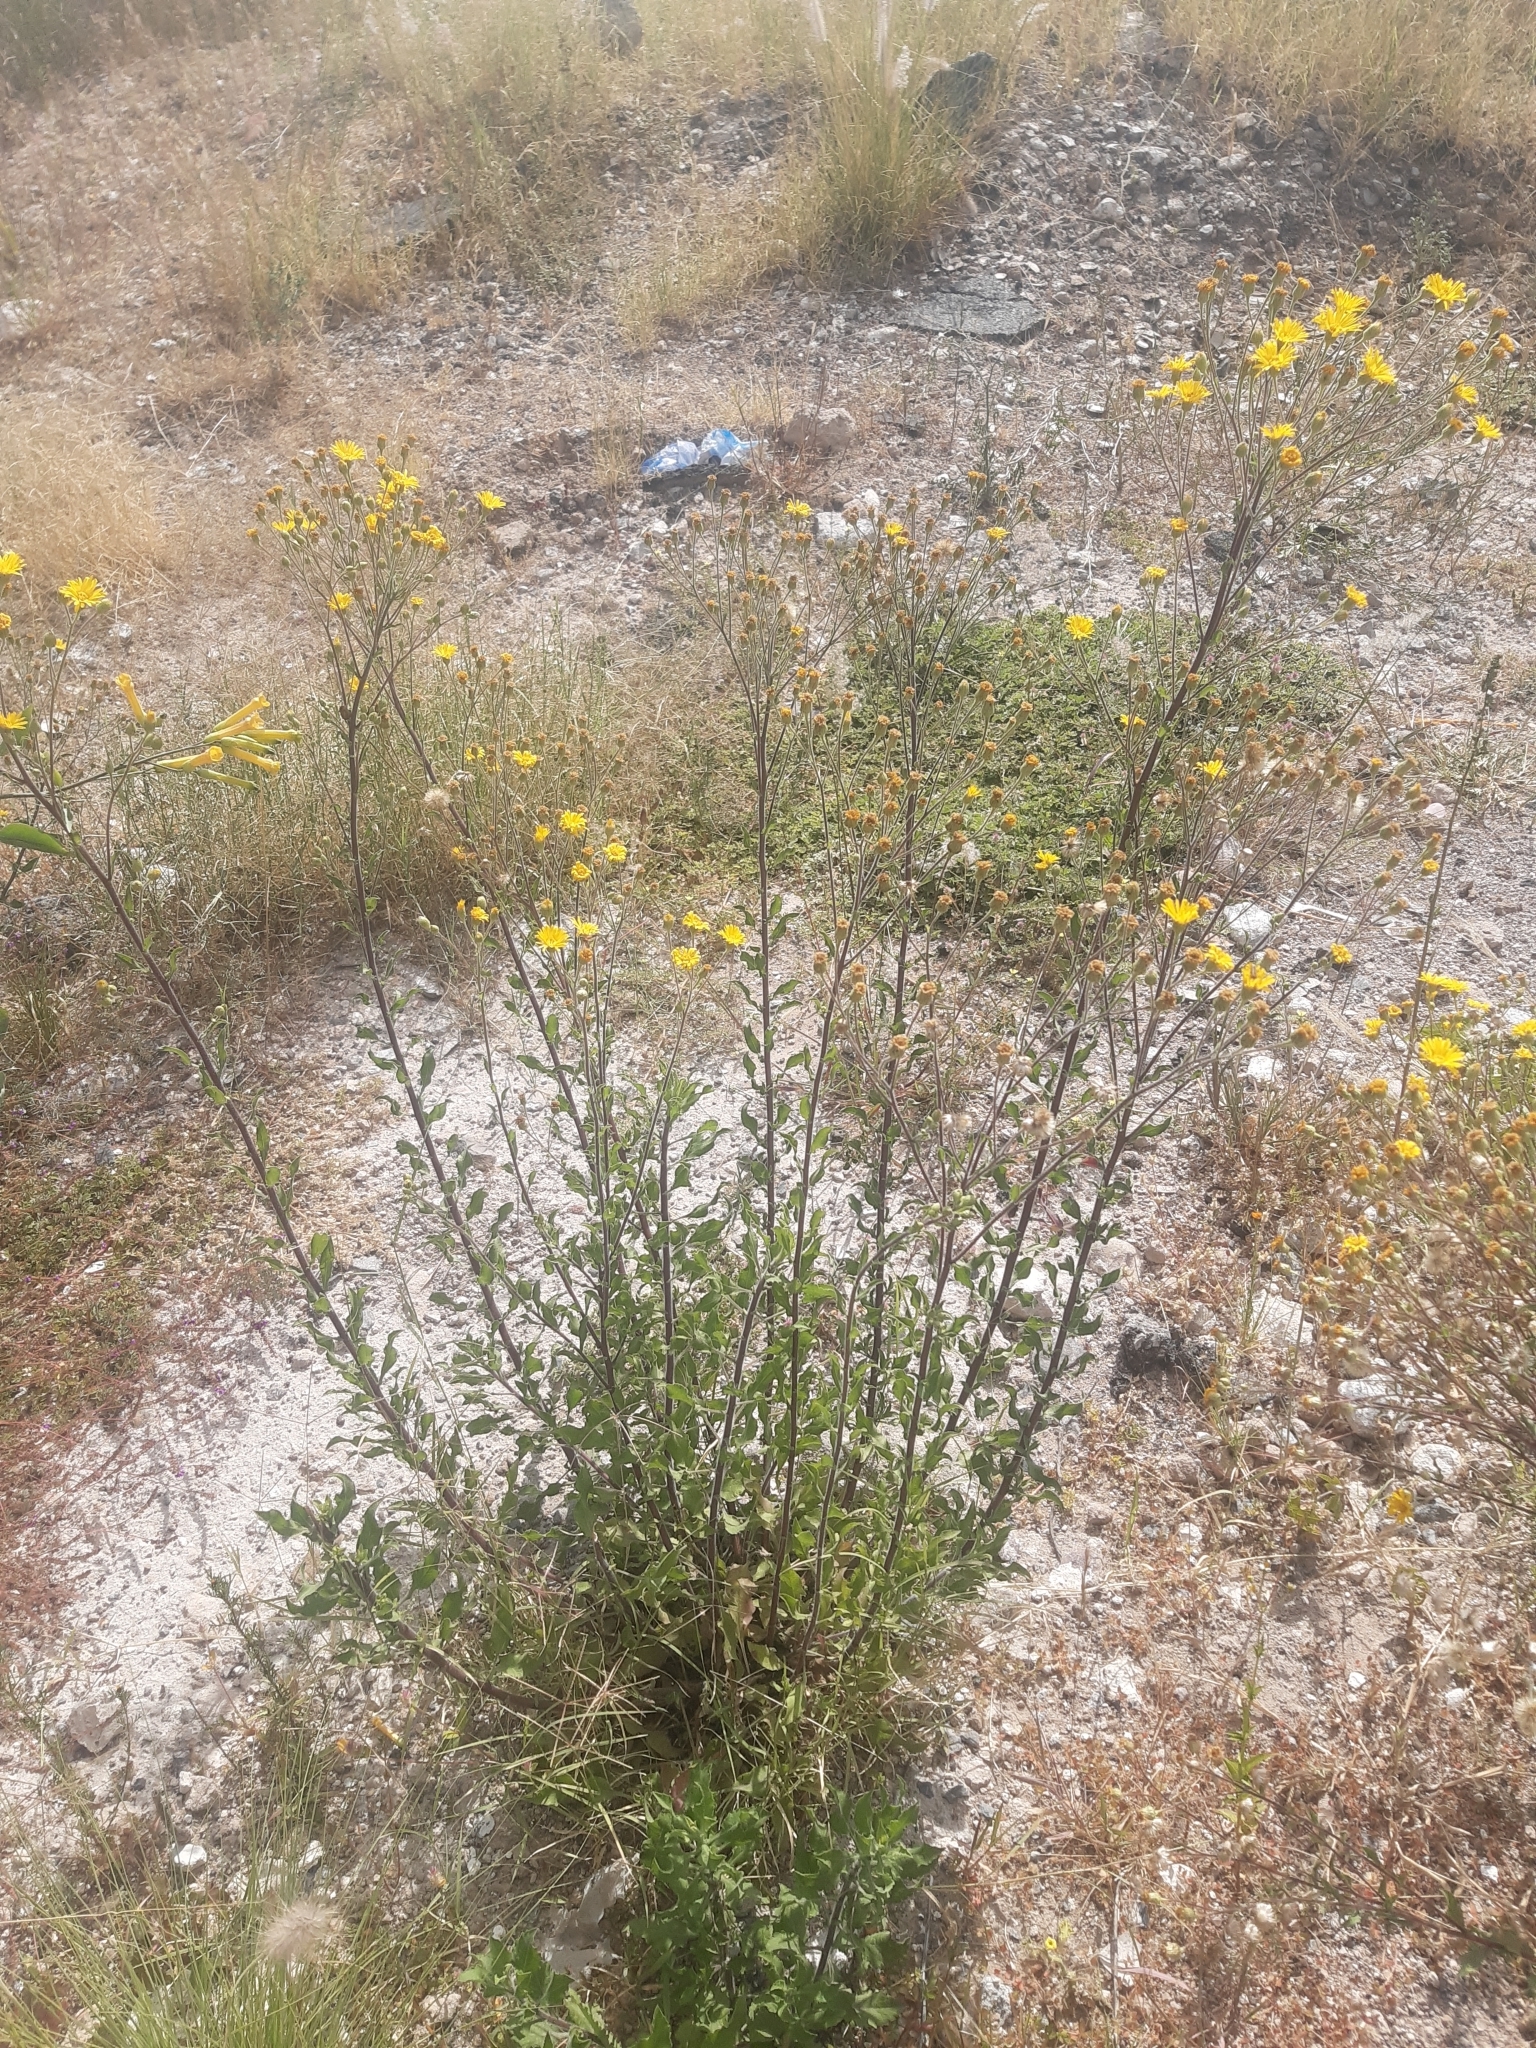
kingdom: Plantae
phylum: Tracheophyta
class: Magnoliopsida
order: Asterales
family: Asteraceae
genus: Heterotheca
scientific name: Heterotheca inuloides
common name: False arnica
